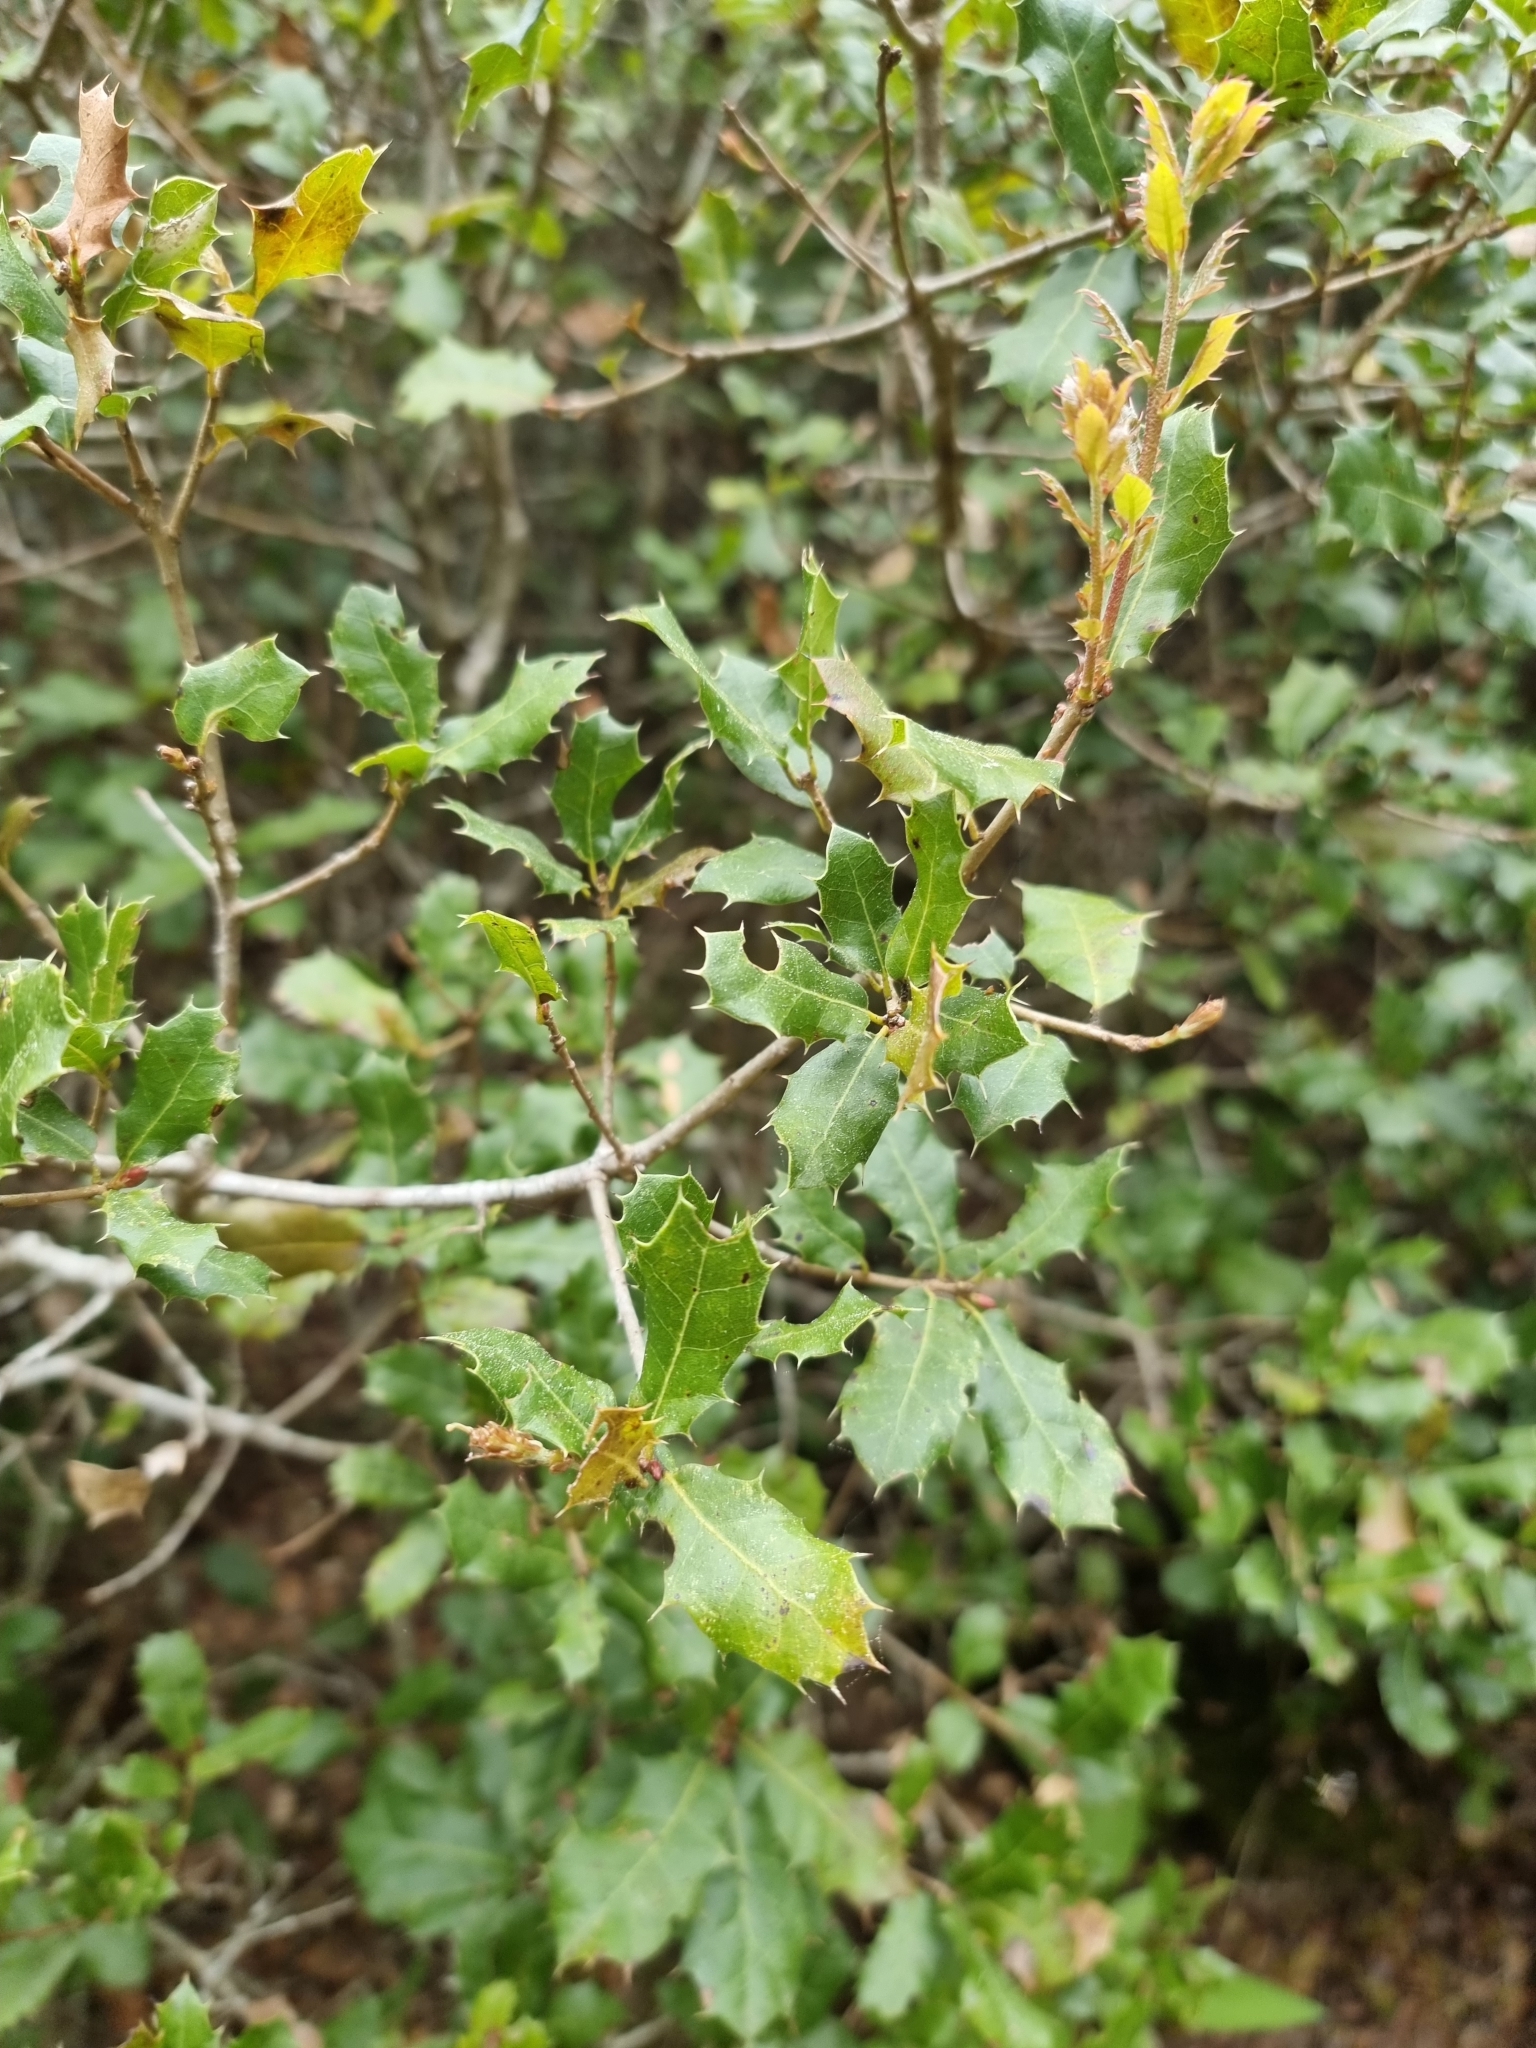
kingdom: Plantae
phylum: Tracheophyta
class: Magnoliopsida
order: Fagales
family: Fagaceae
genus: Quercus
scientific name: Quercus coccifera
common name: Kermes oak
